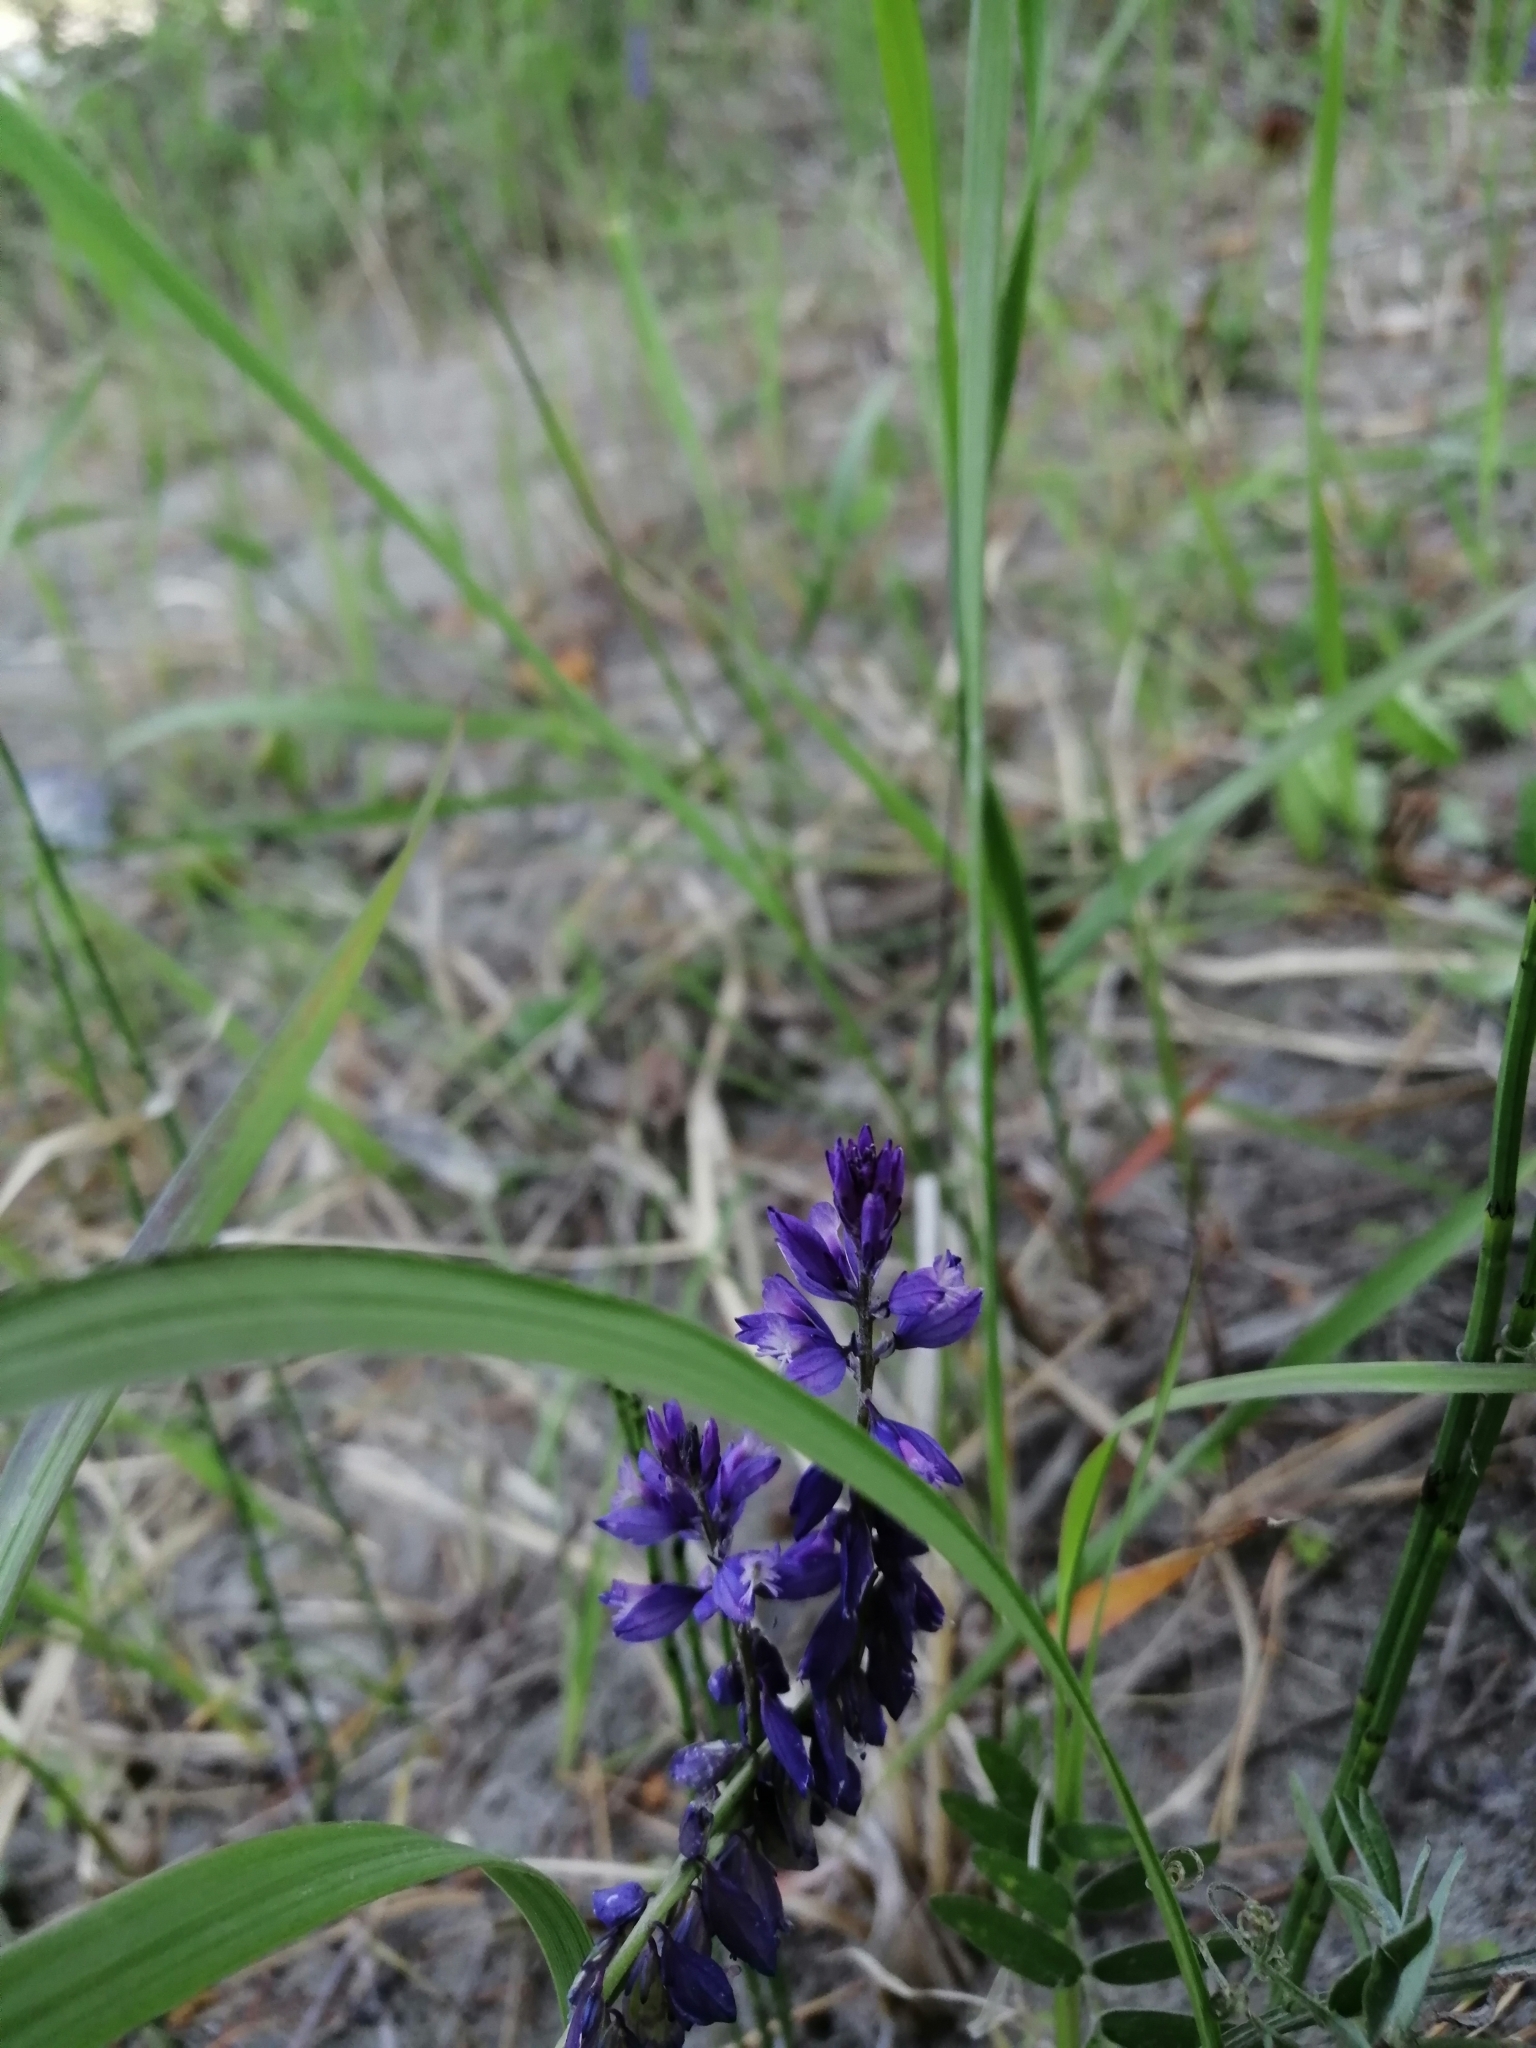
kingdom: Plantae
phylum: Tracheophyta
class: Magnoliopsida
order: Fabales
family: Polygalaceae
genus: Polygala
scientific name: Polygala comosa
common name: Tufted milkwort
